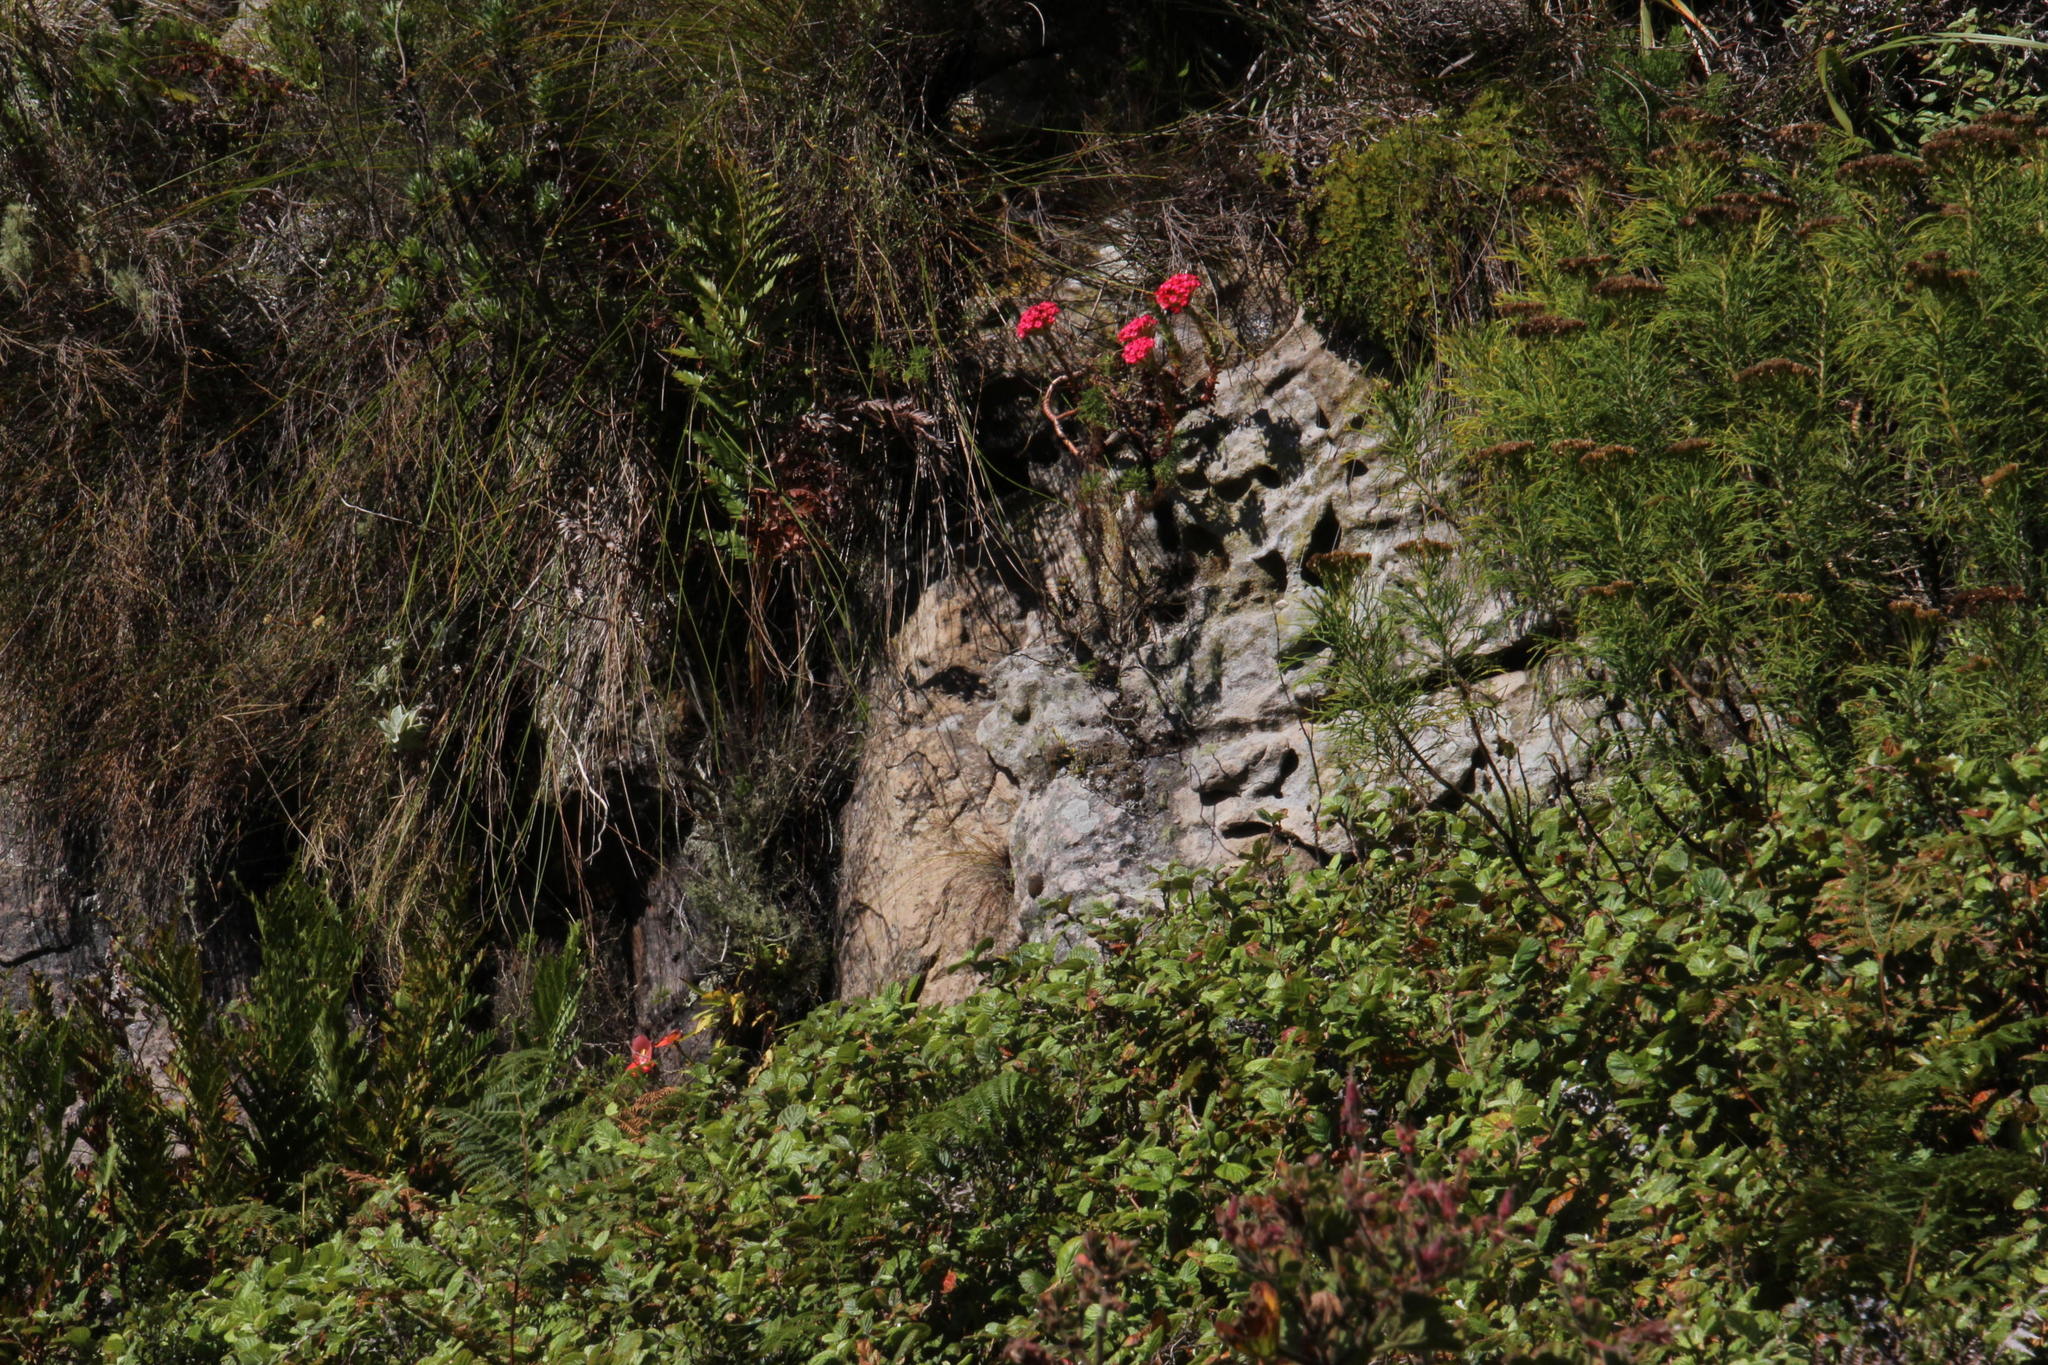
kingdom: Plantae
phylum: Tracheophyta
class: Magnoliopsida
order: Saxifragales
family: Crassulaceae
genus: Crassula
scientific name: Crassula coccinea
